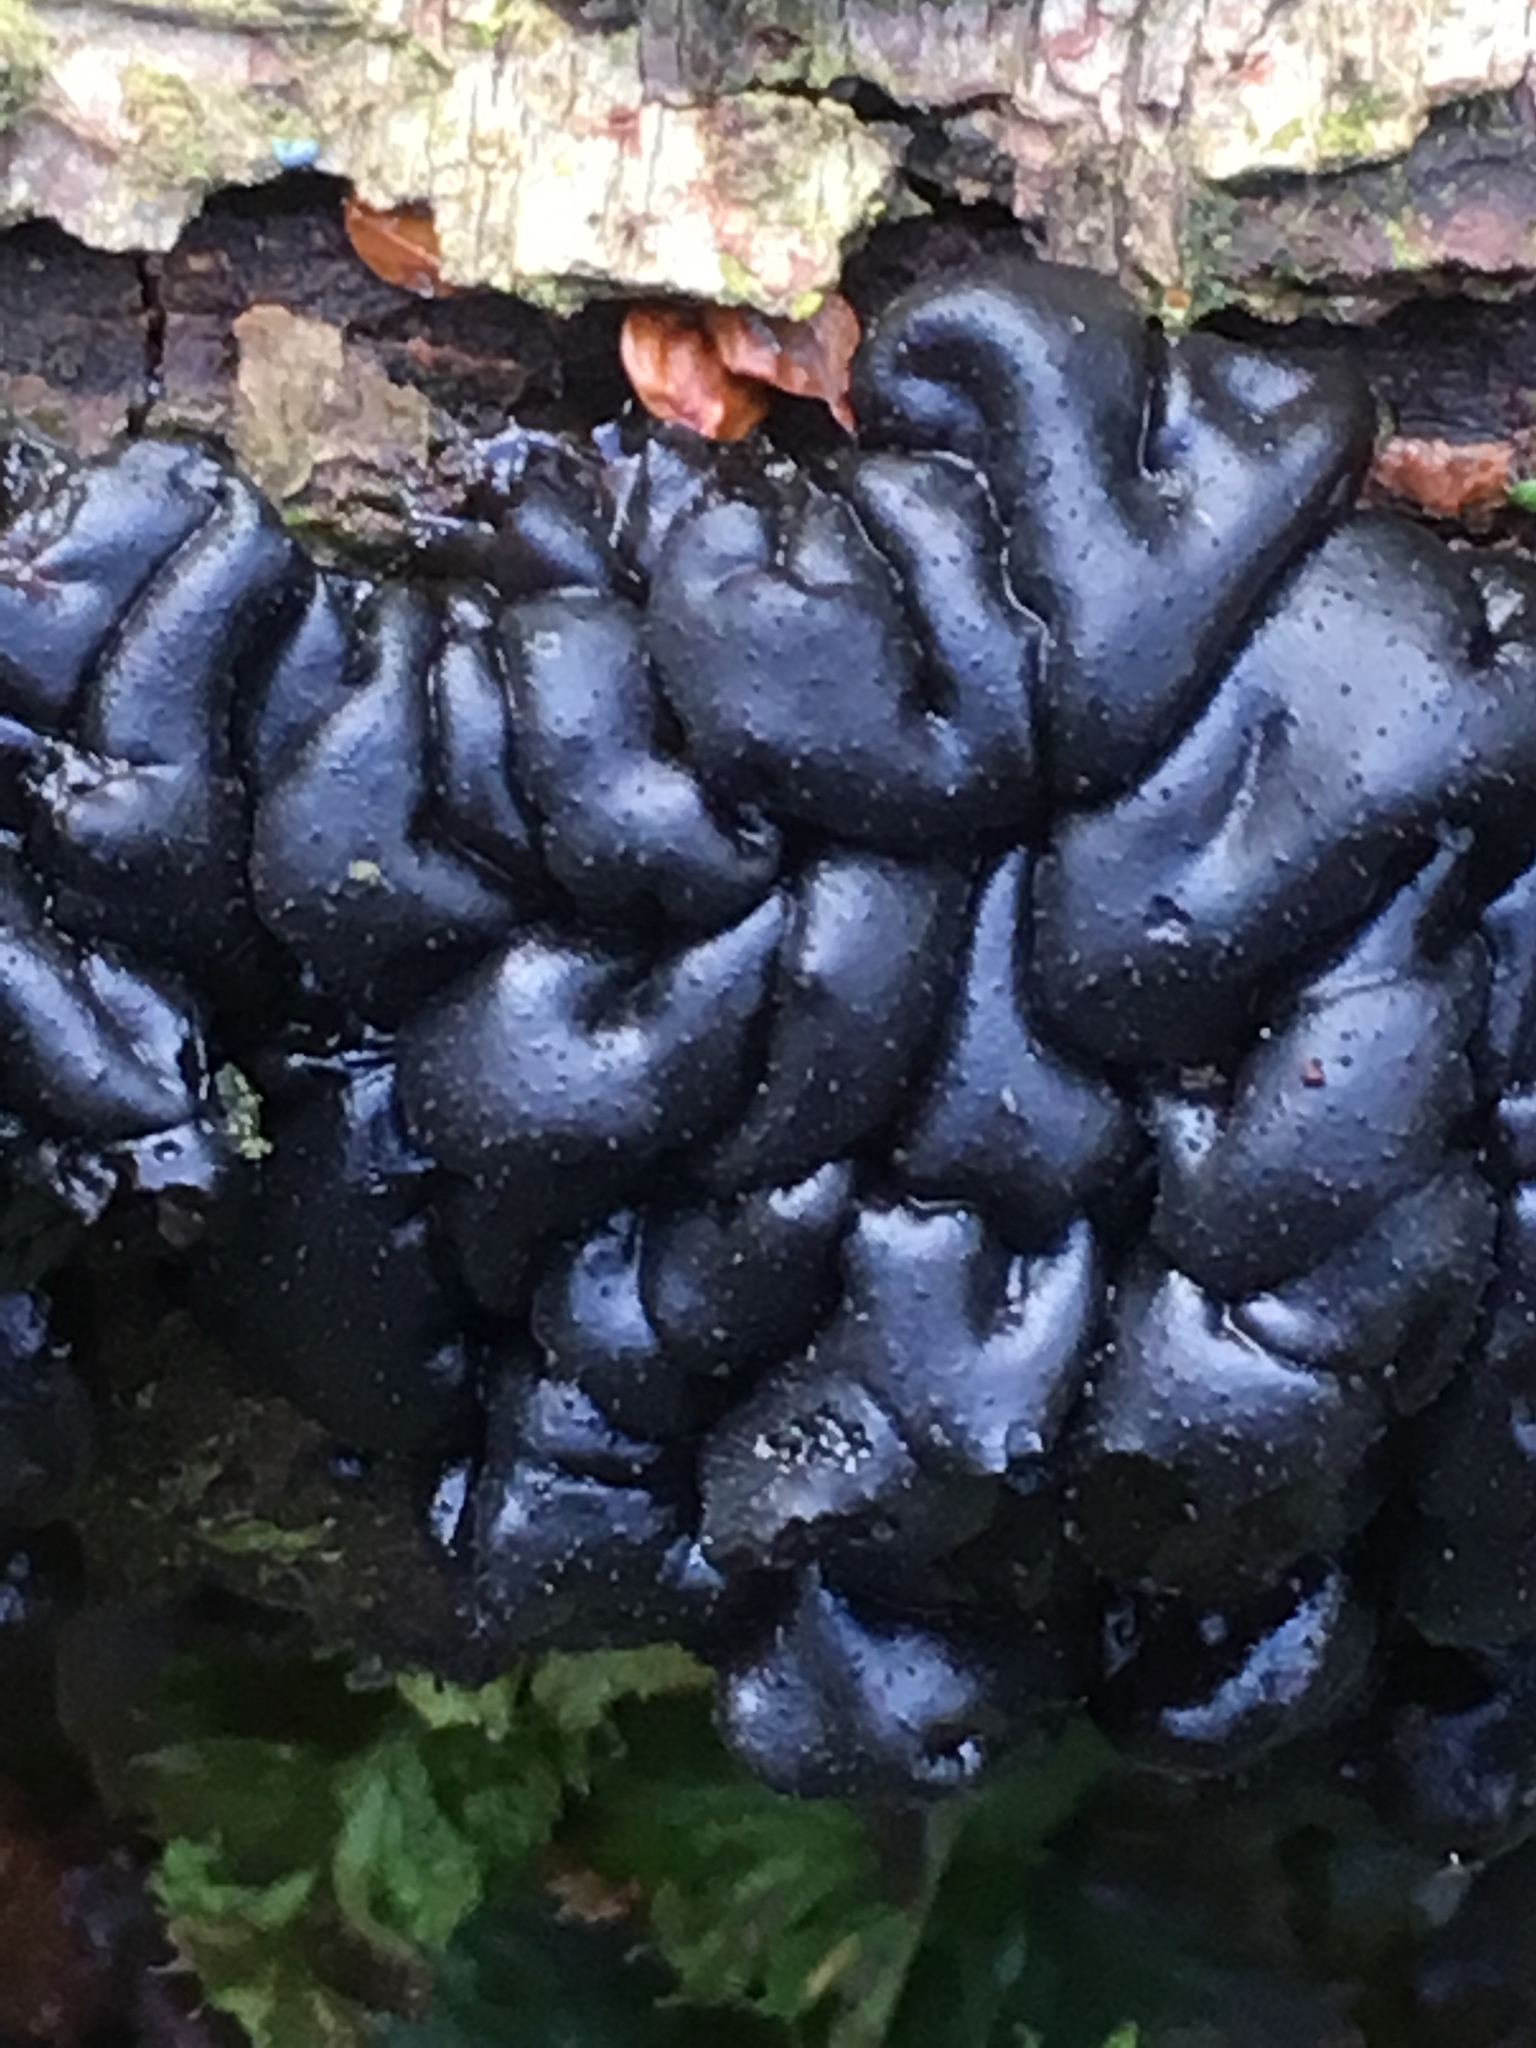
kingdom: Fungi
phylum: Basidiomycota
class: Agaricomycetes
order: Auriculariales
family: Auriculariaceae
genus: Exidia
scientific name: Exidia glandulosa
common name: Witches' butter
